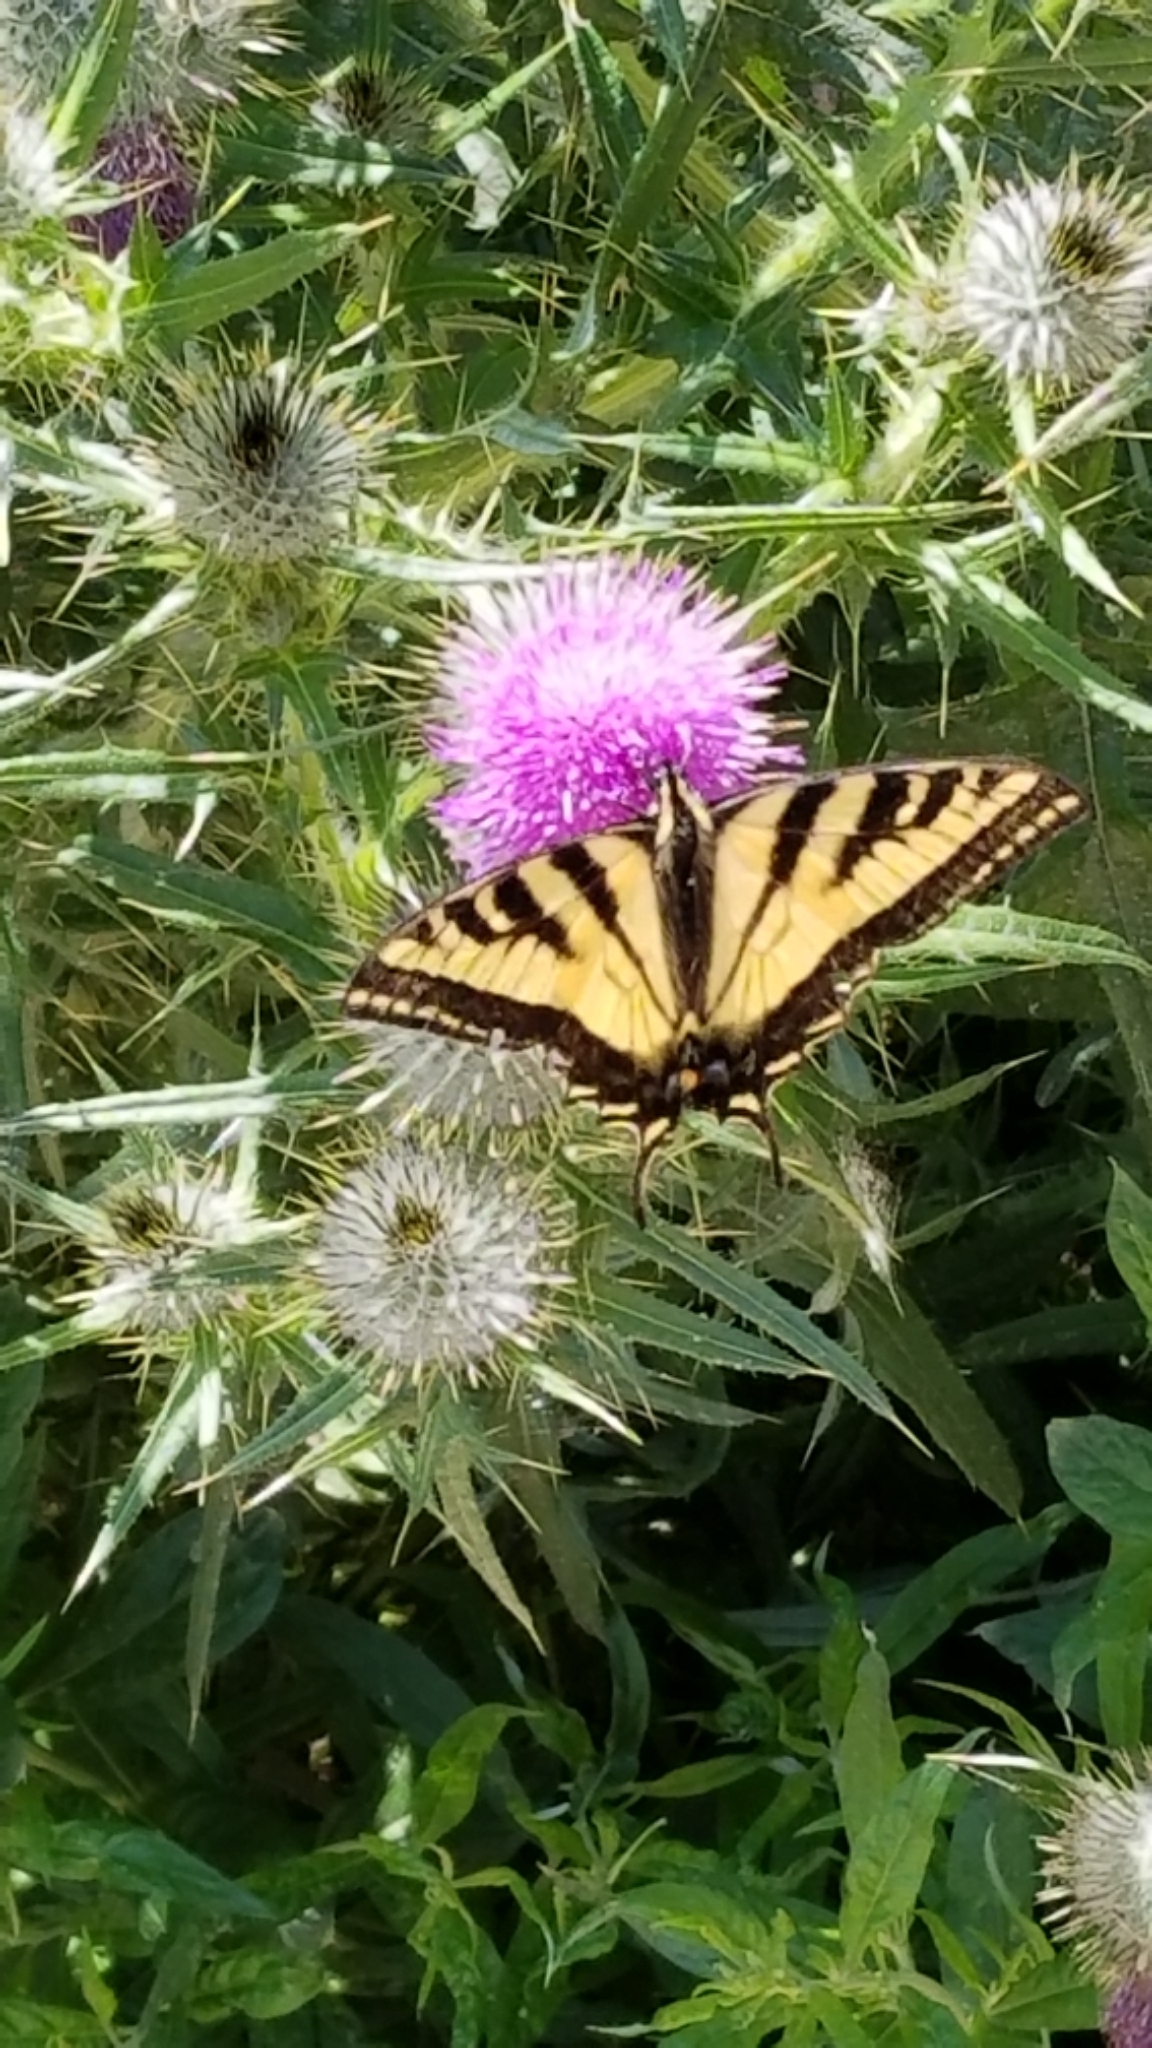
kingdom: Animalia
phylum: Arthropoda
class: Insecta
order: Lepidoptera
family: Papilionidae
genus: Papilio
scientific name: Papilio rutulus
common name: Western tiger swallowtail
